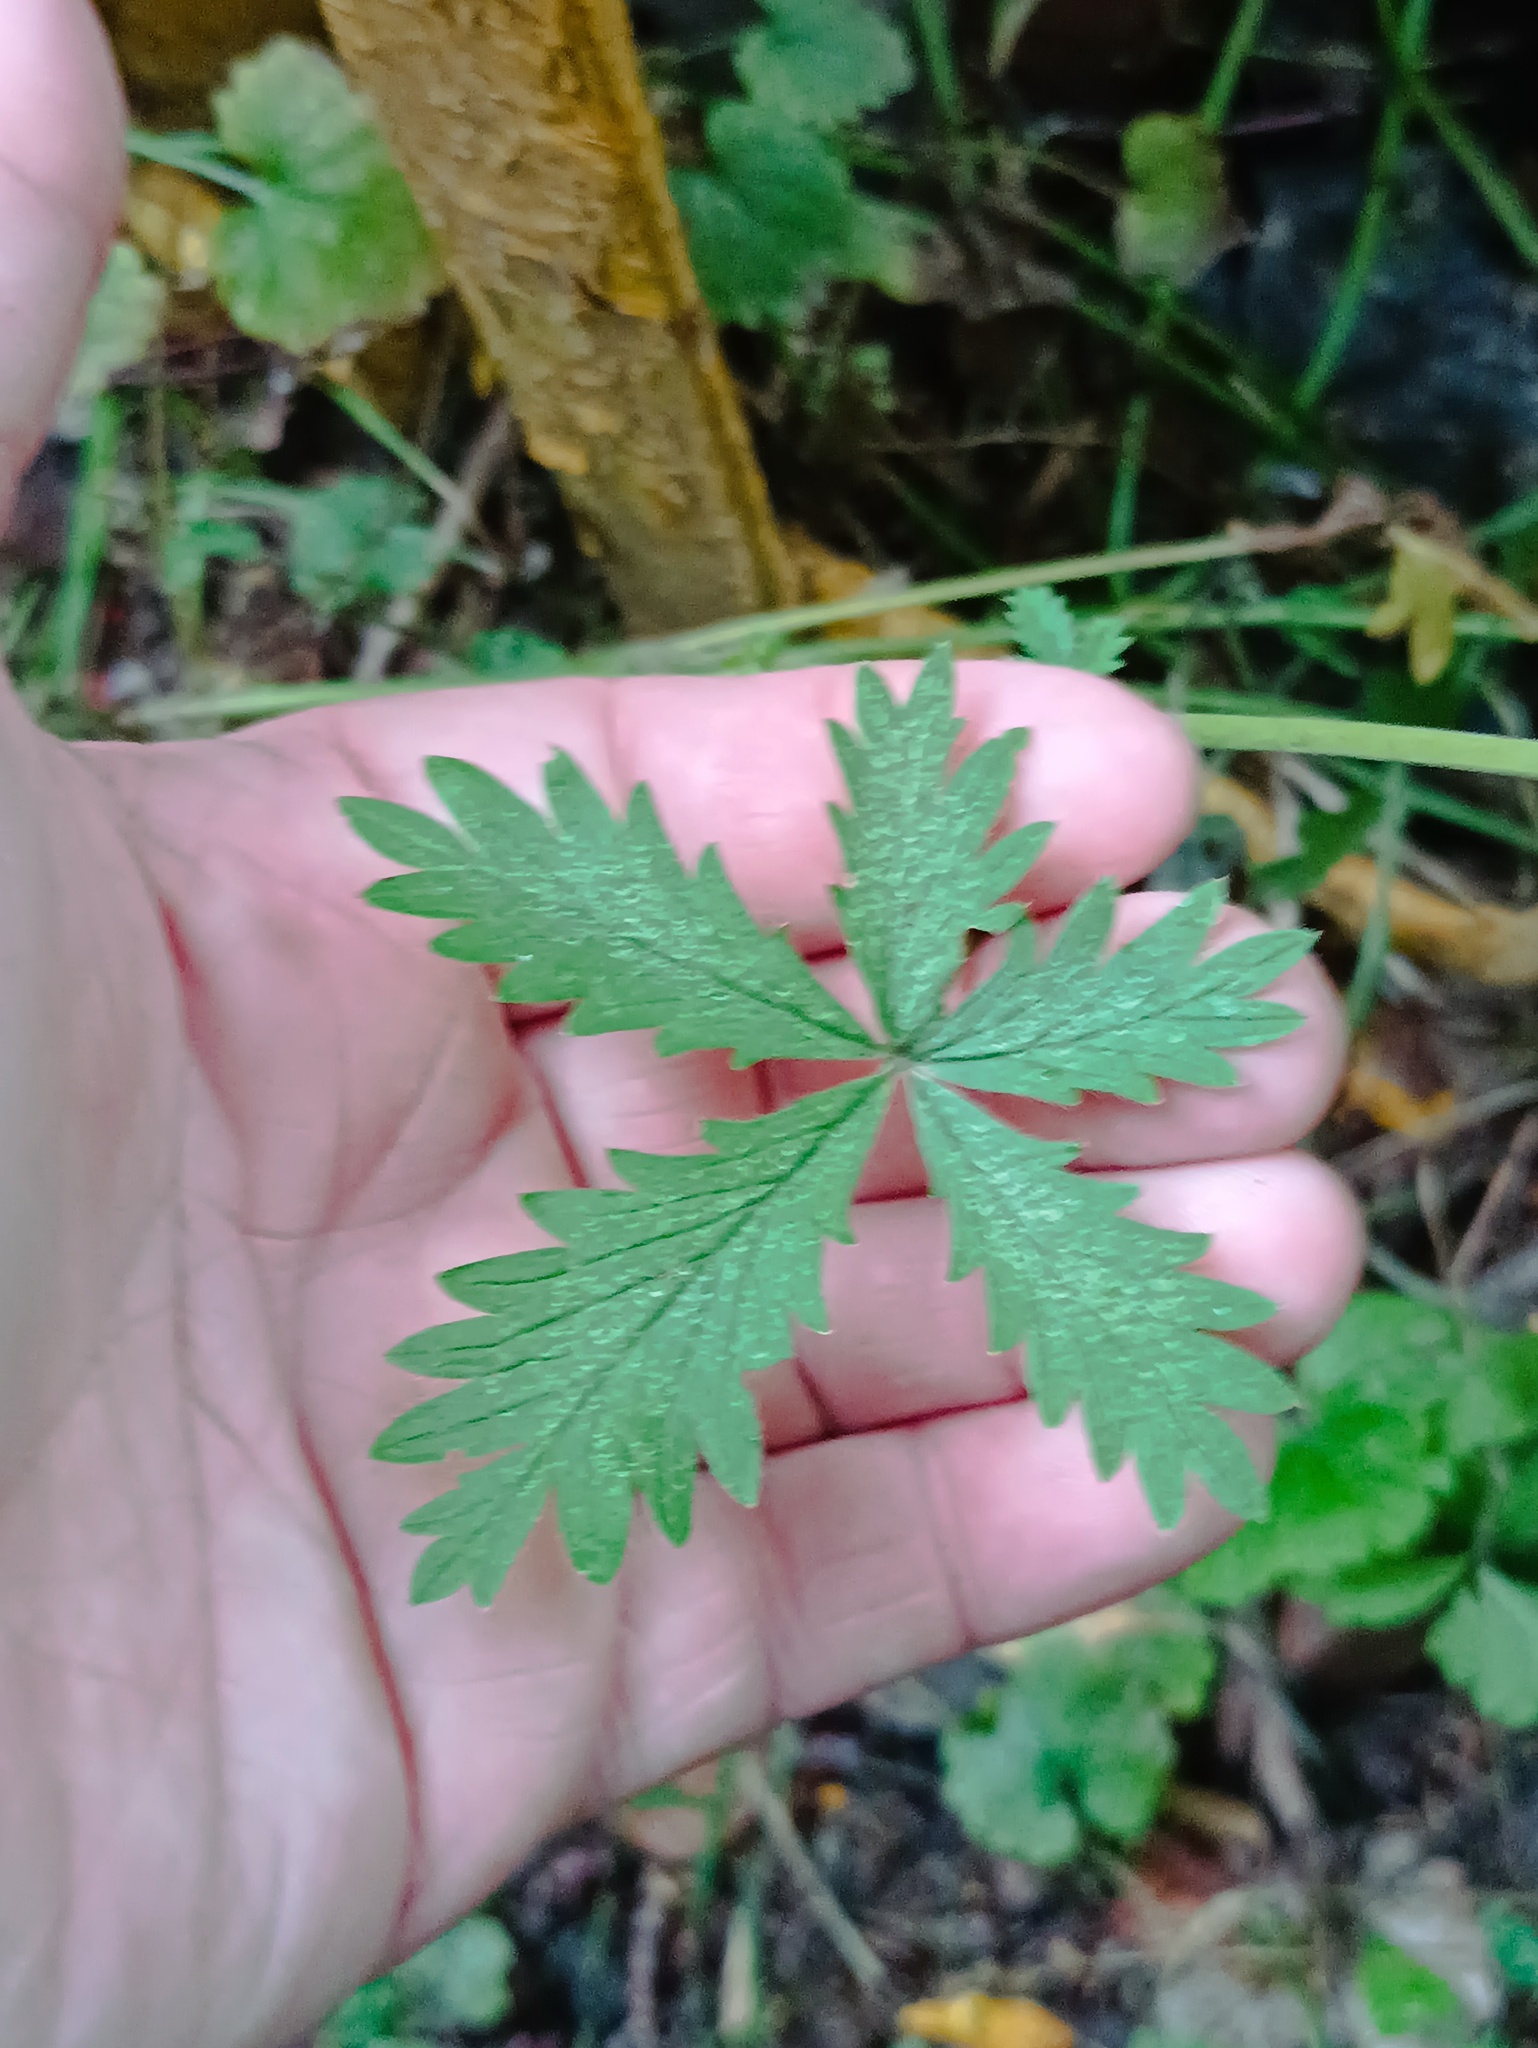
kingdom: Plantae
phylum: Tracheophyta
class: Magnoliopsida
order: Rosales
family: Rosaceae
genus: Potentilla
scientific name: Potentilla intermedia
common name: Downy cinquefoil
